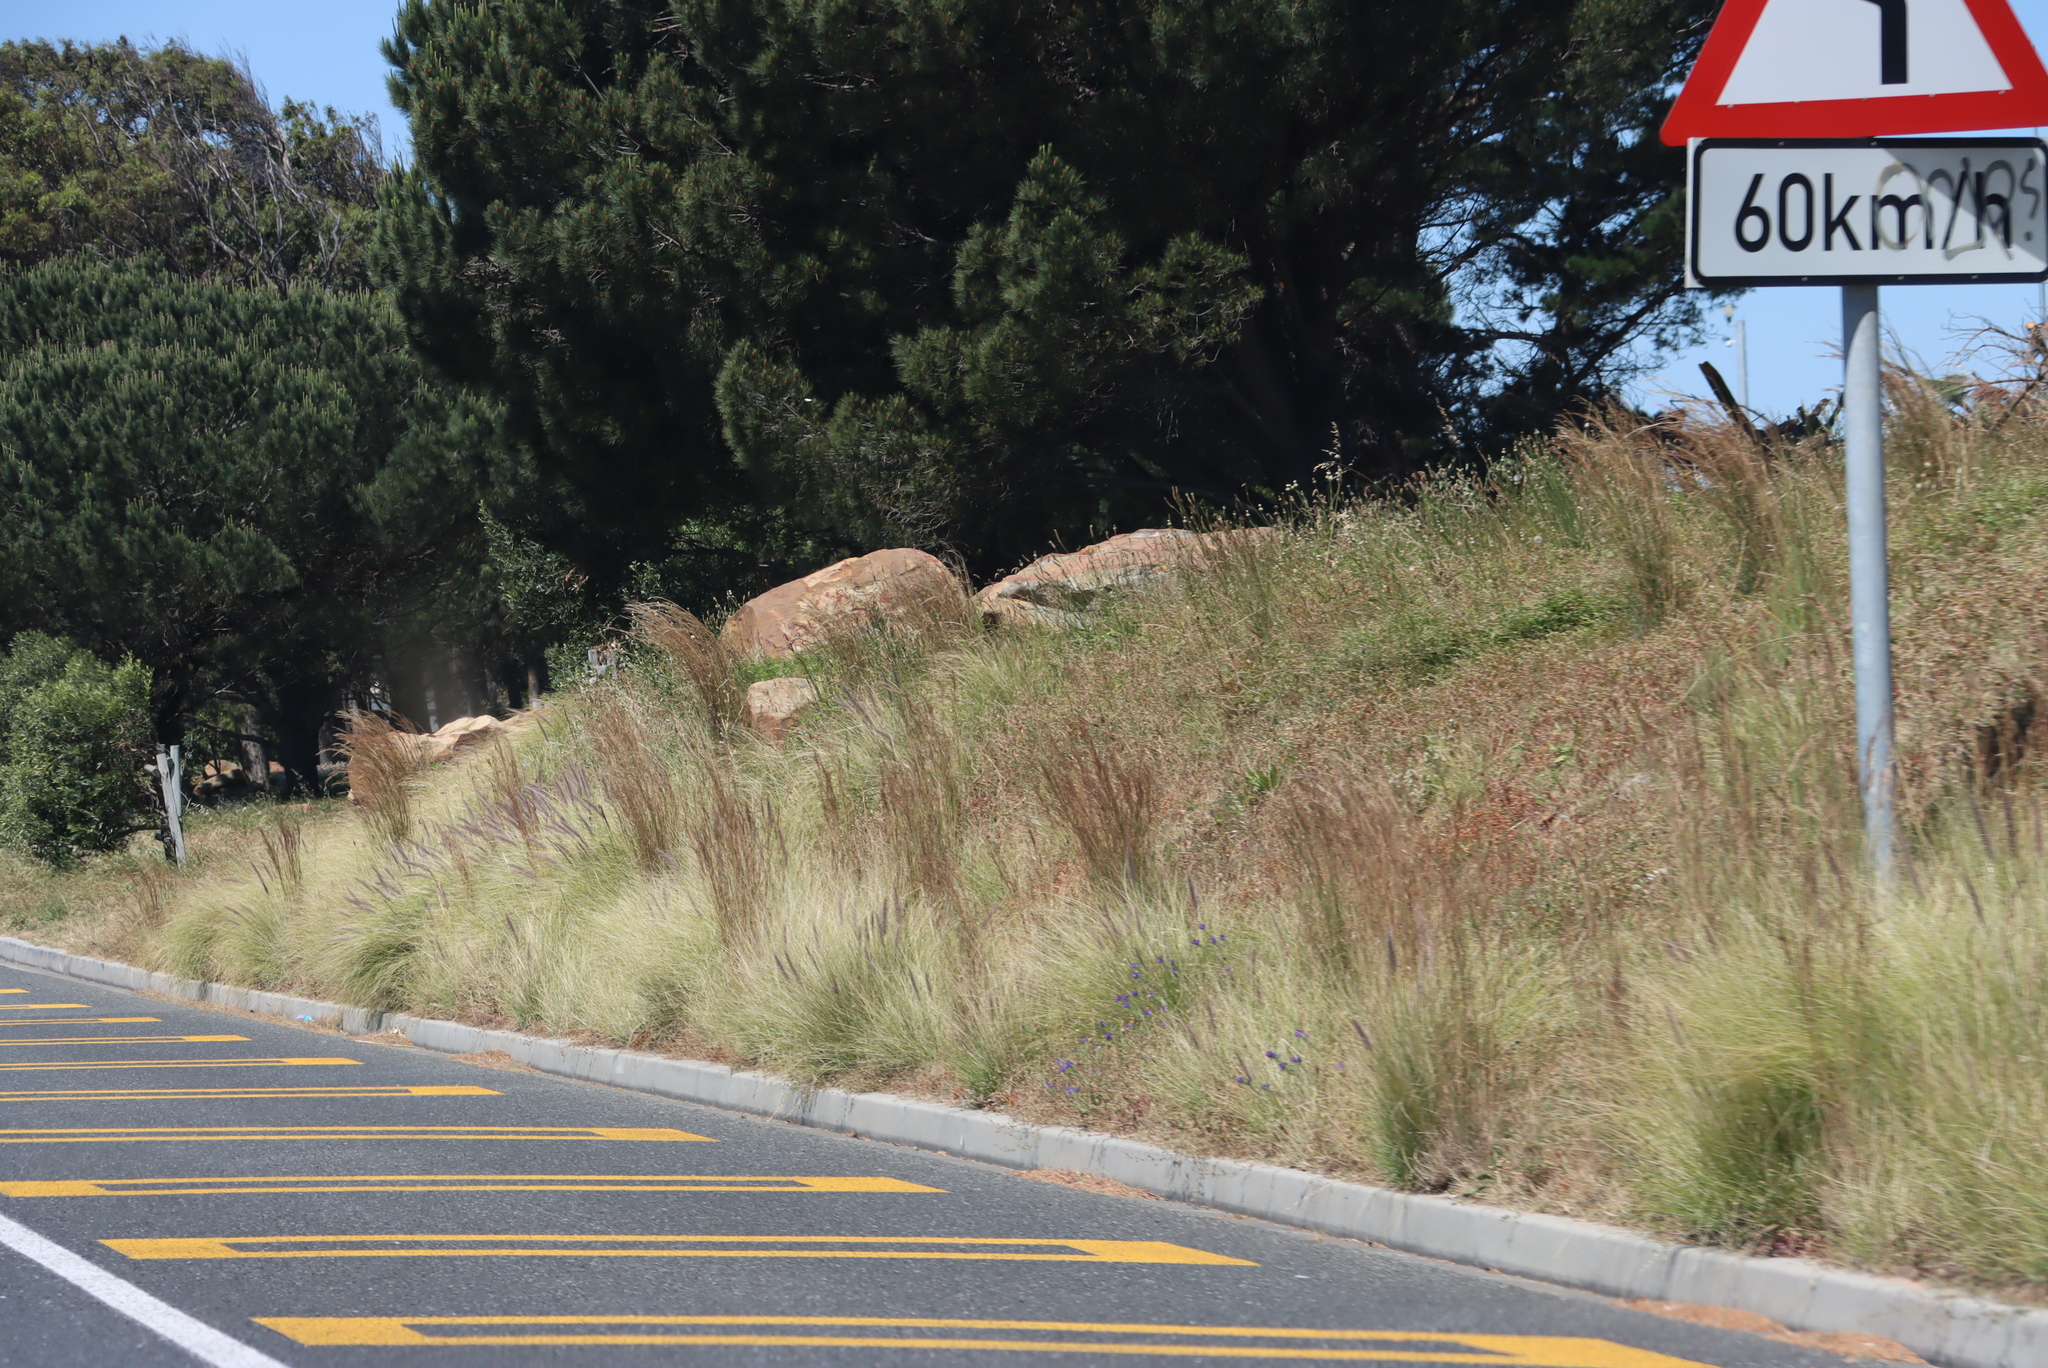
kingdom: Plantae
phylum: Tracheophyta
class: Liliopsida
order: Poales
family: Poaceae
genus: Cenchrus
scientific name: Cenchrus setaceus
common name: Crimson fountaingrass
